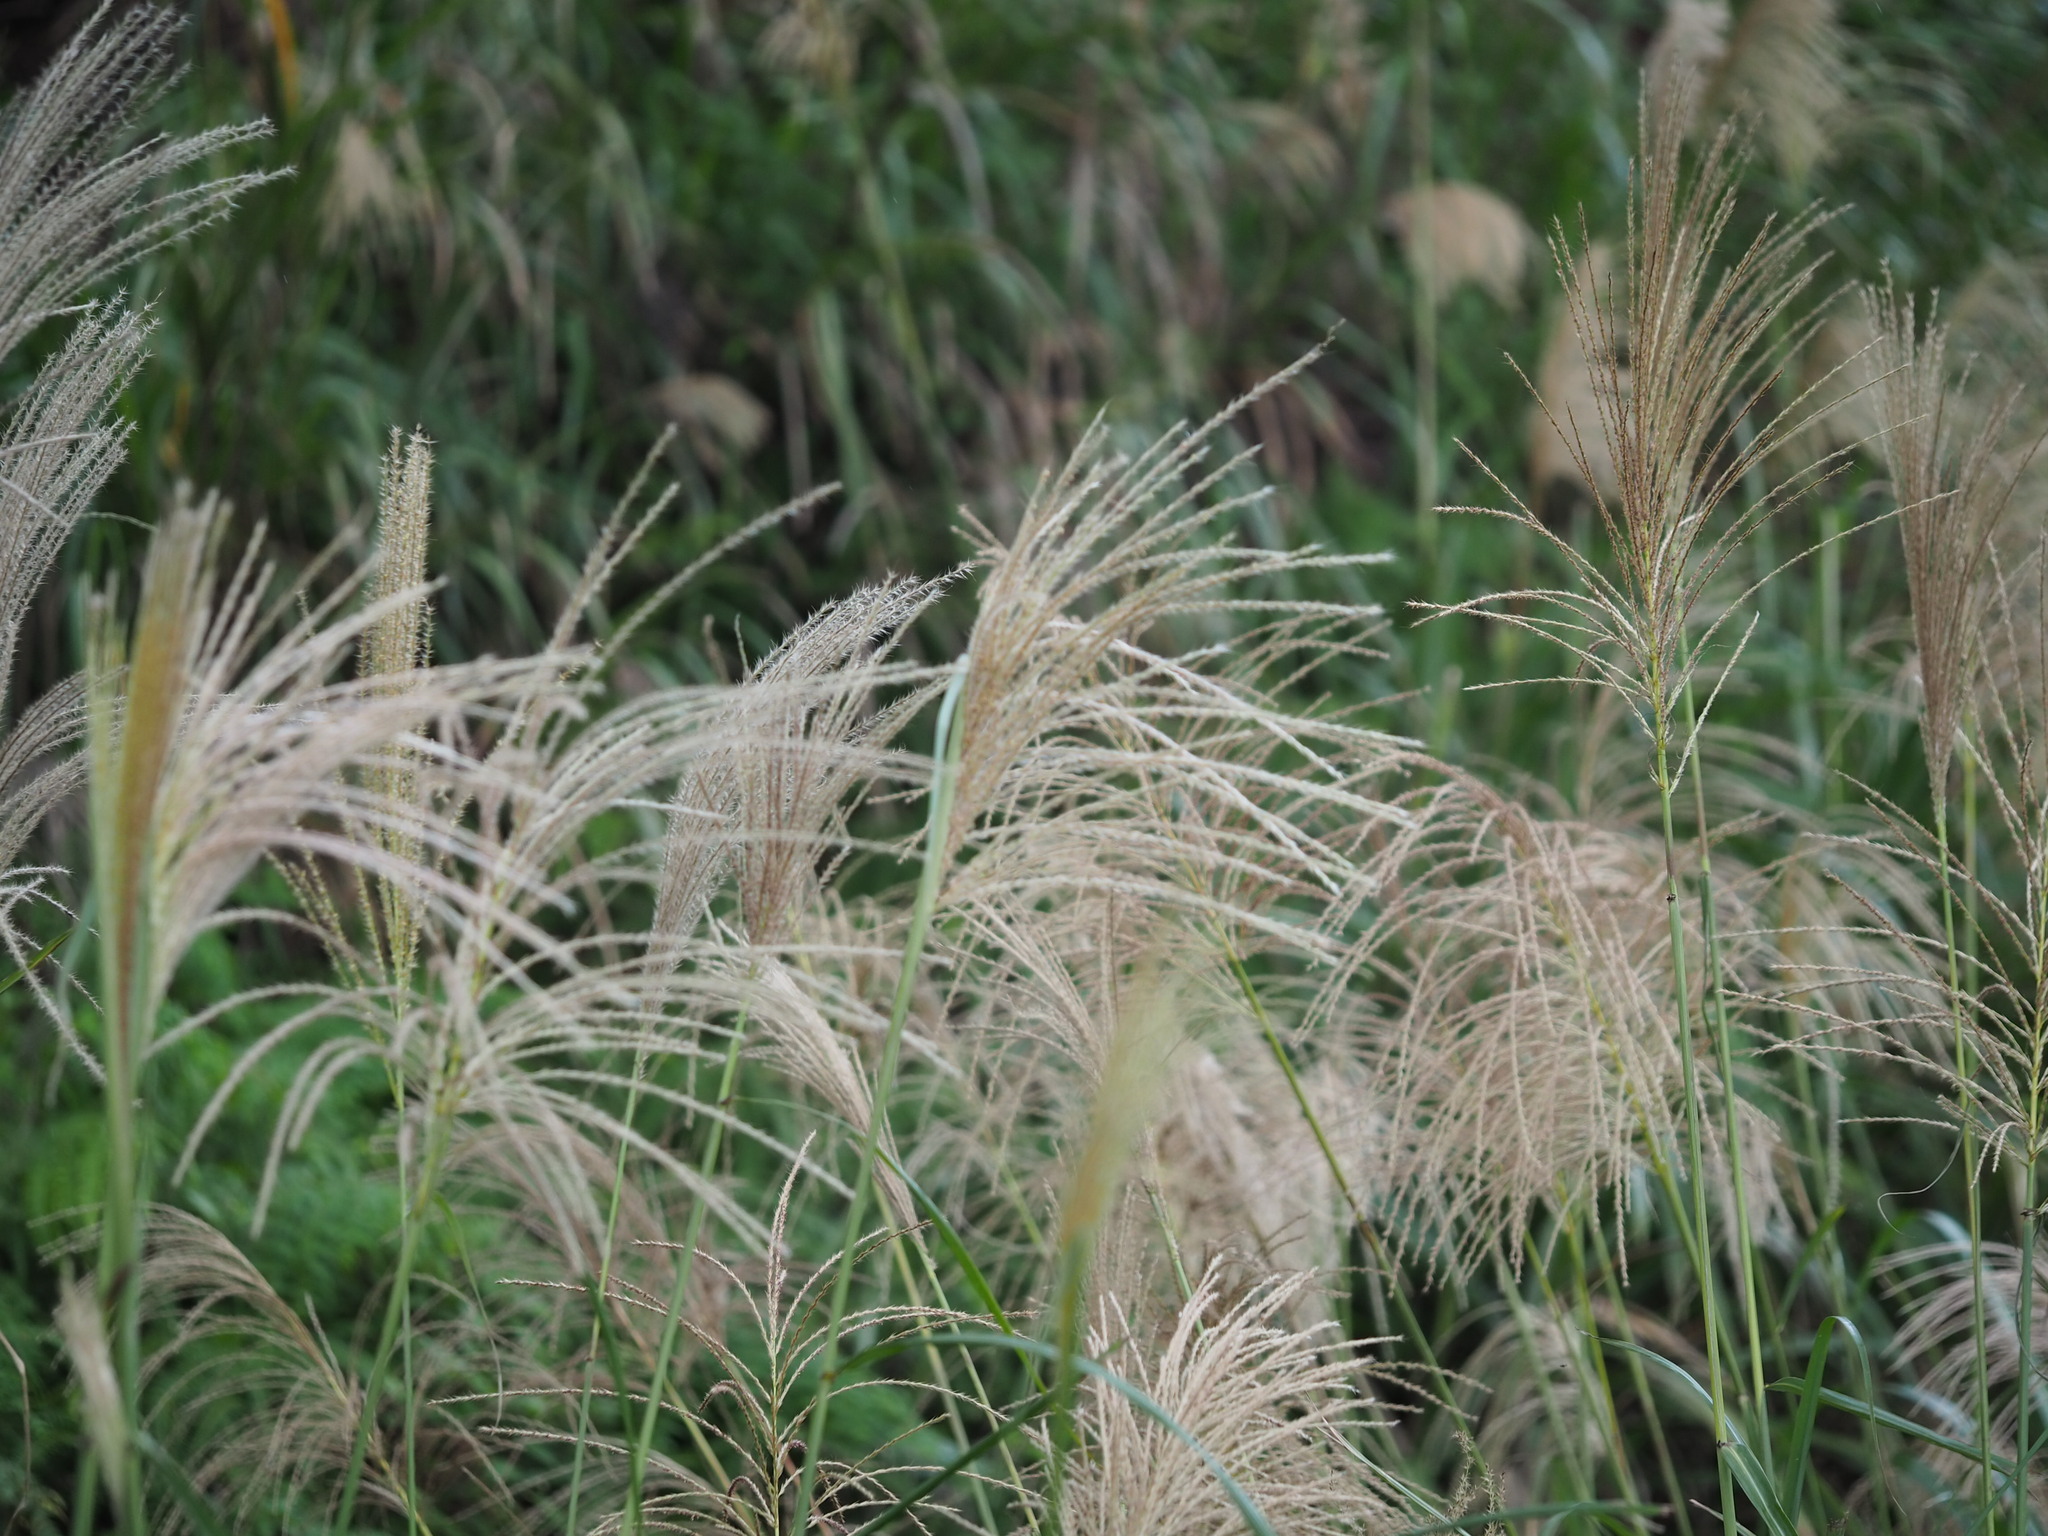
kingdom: Plantae
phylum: Tracheophyta
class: Liliopsida
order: Poales
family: Poaceae
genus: Miscanthus
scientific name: Miscanthus sinensis
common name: Chinese silvergrass
